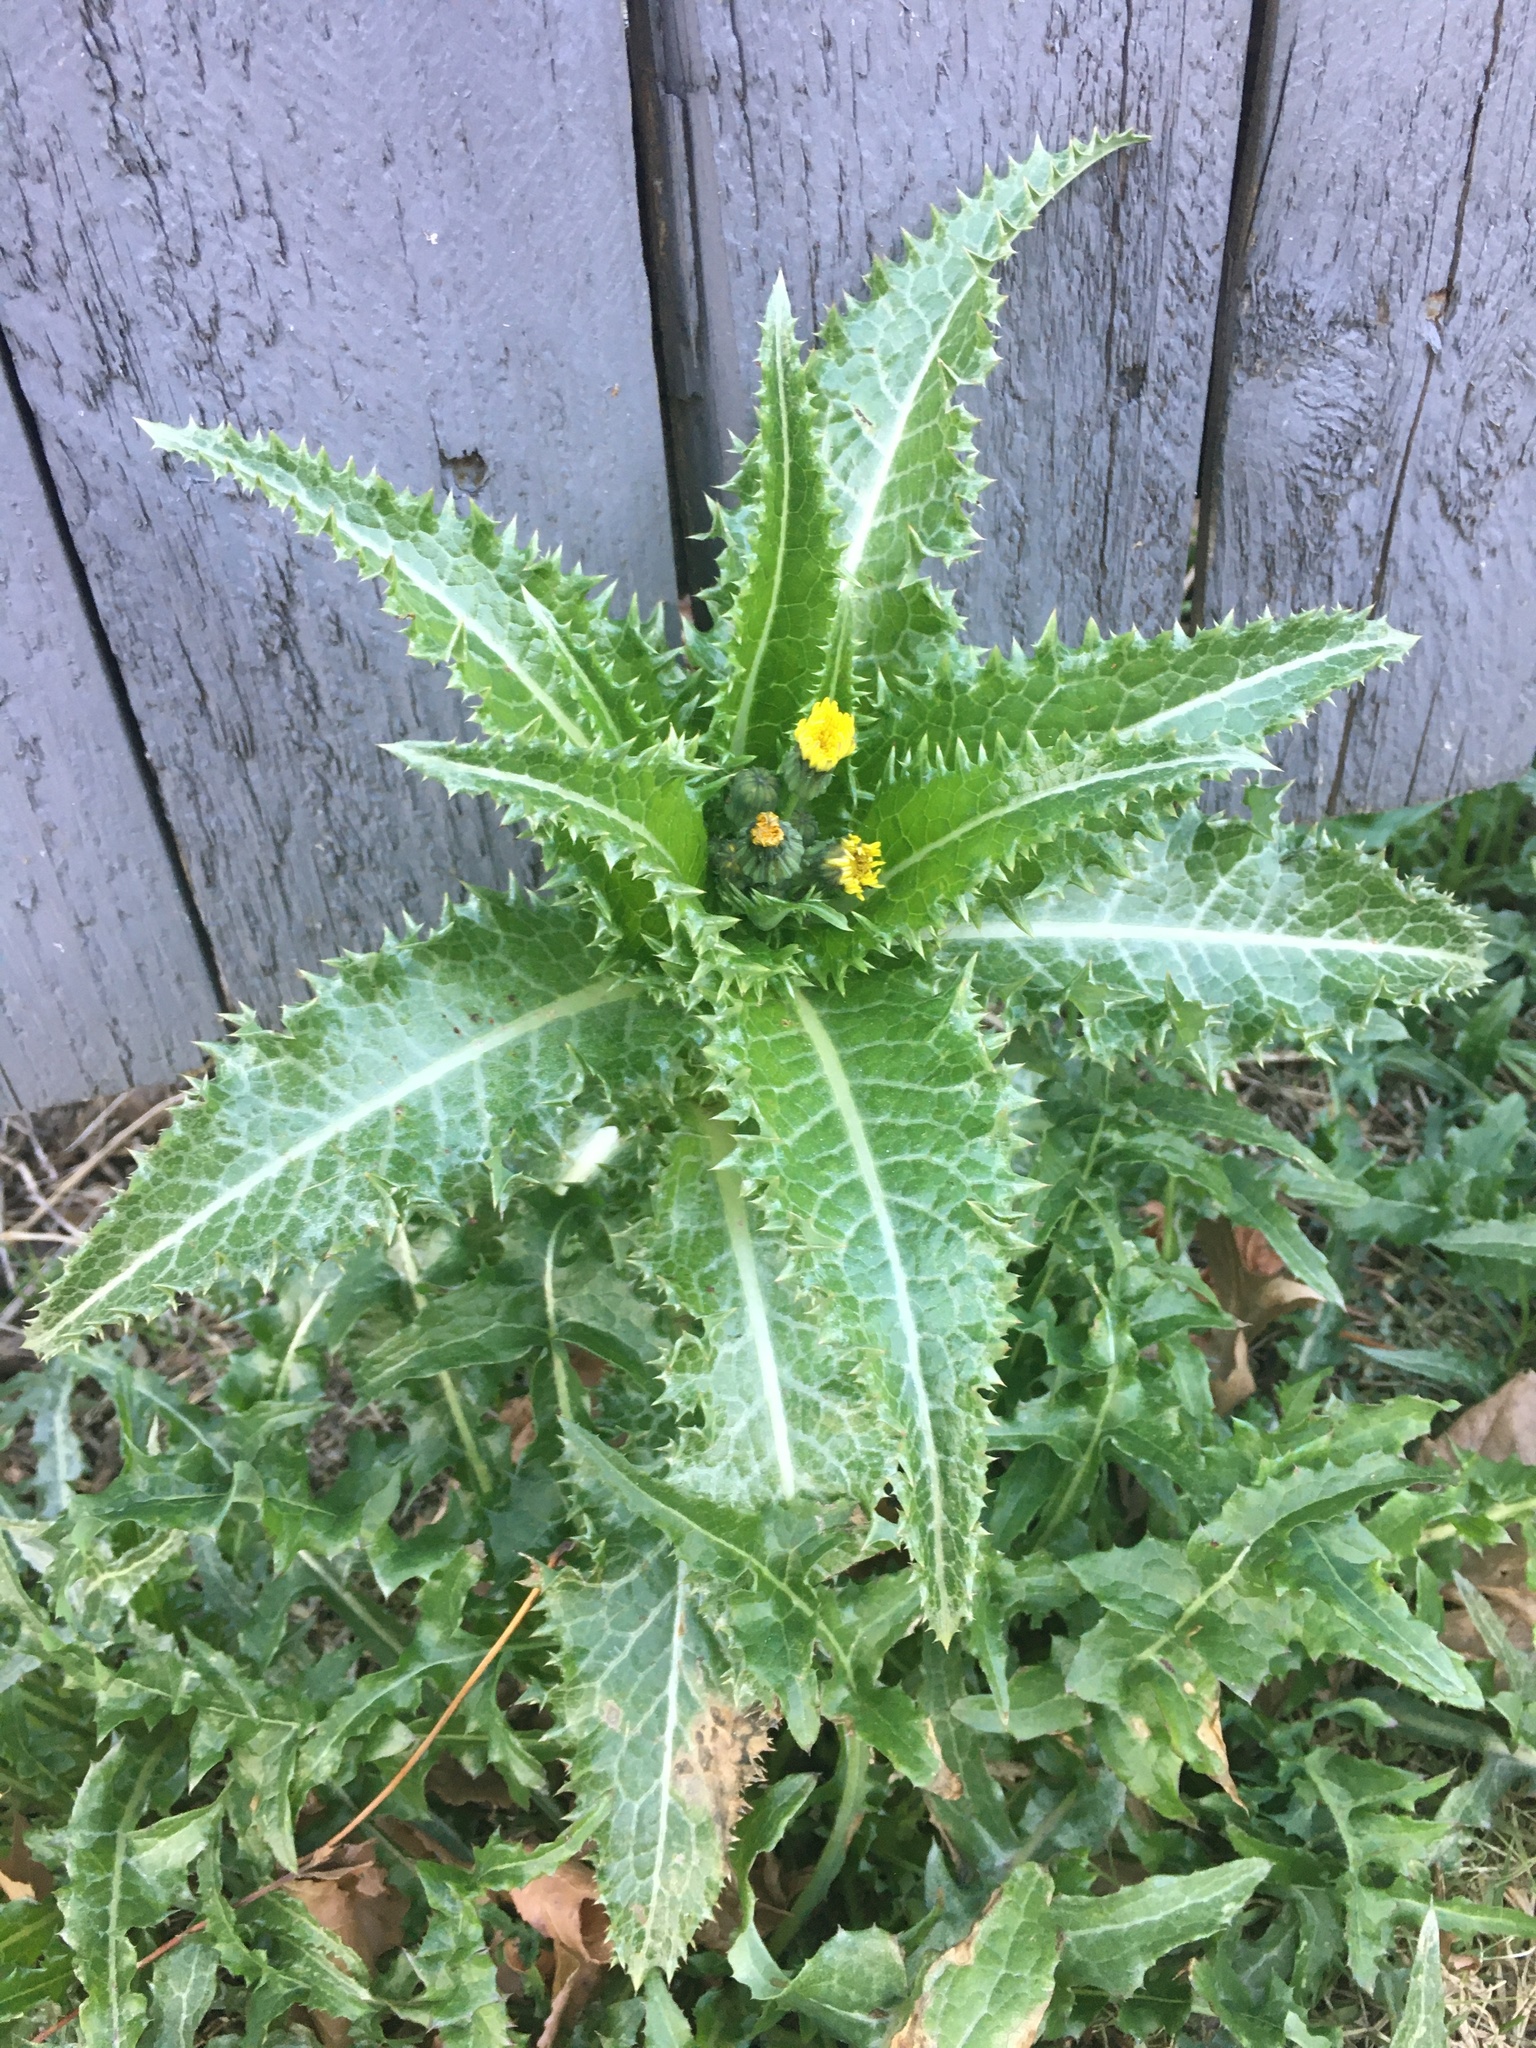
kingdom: Plantae
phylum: Tracheophyta
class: Magnoliopsida
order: Asterales
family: Asteraceae
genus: Sonchus
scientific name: Sonchus asper
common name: Prickly sow-thistle
